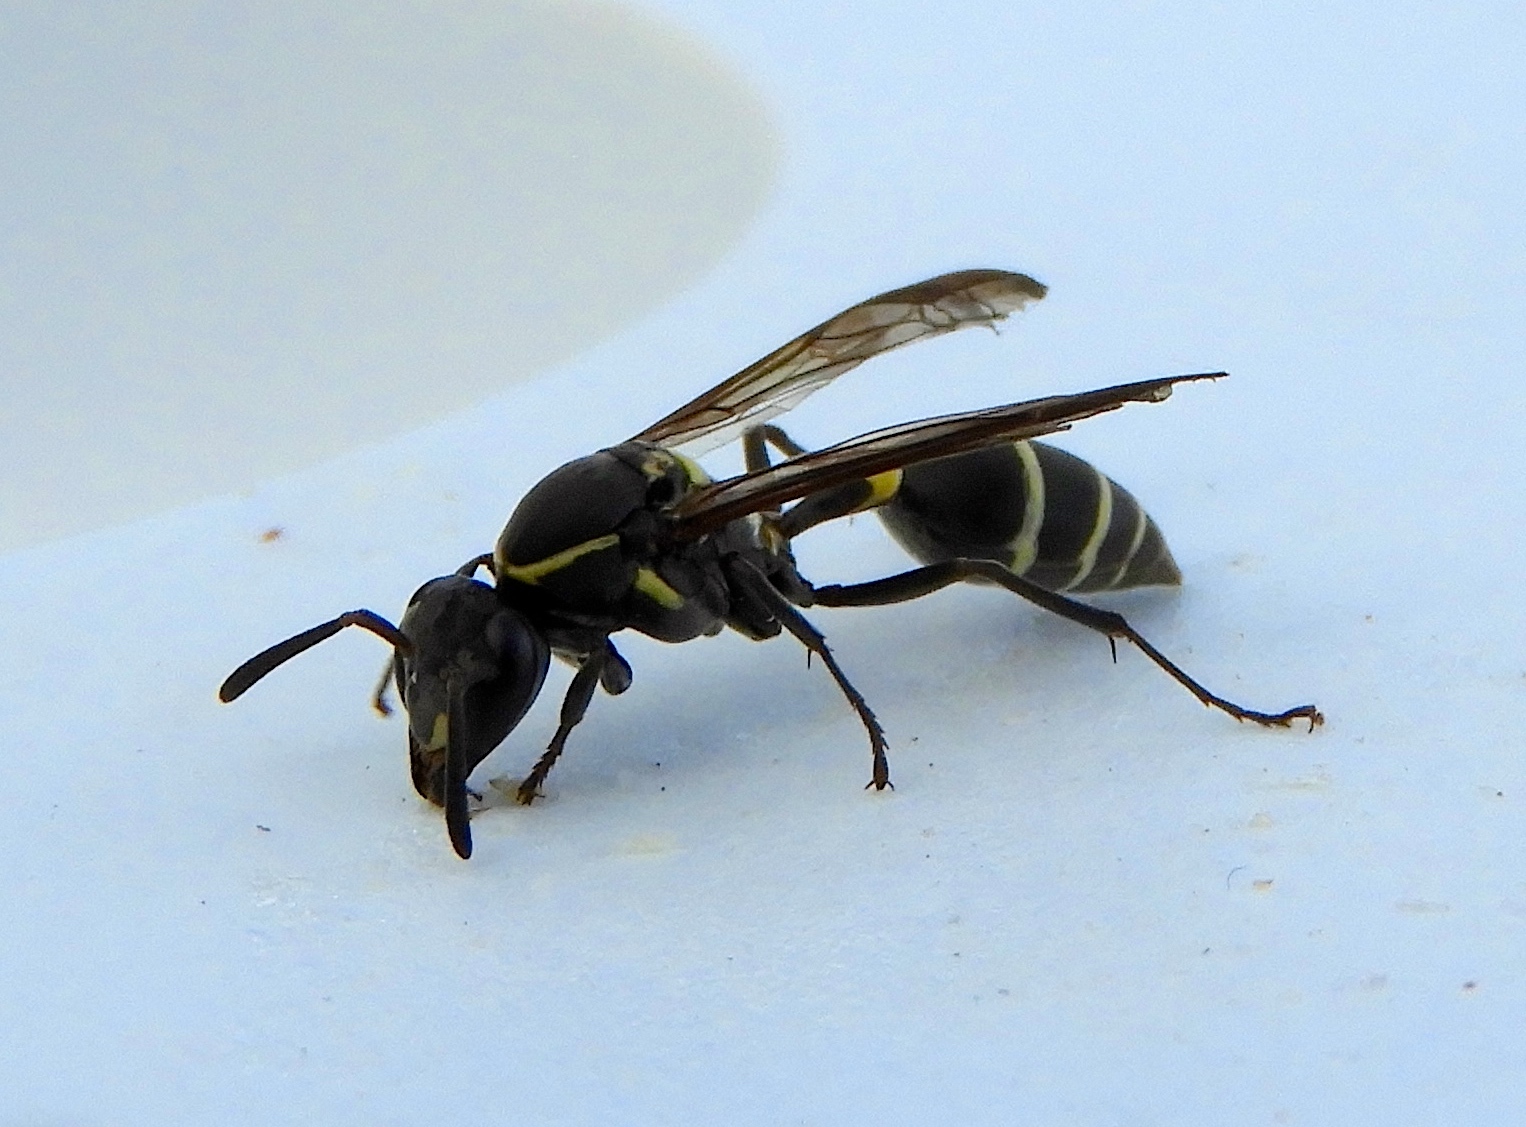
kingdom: Animalia
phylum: Arthropoda
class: Insecta
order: Hymenoptera
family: Eumenidae
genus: Polybia
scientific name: Polybia occidentalis
